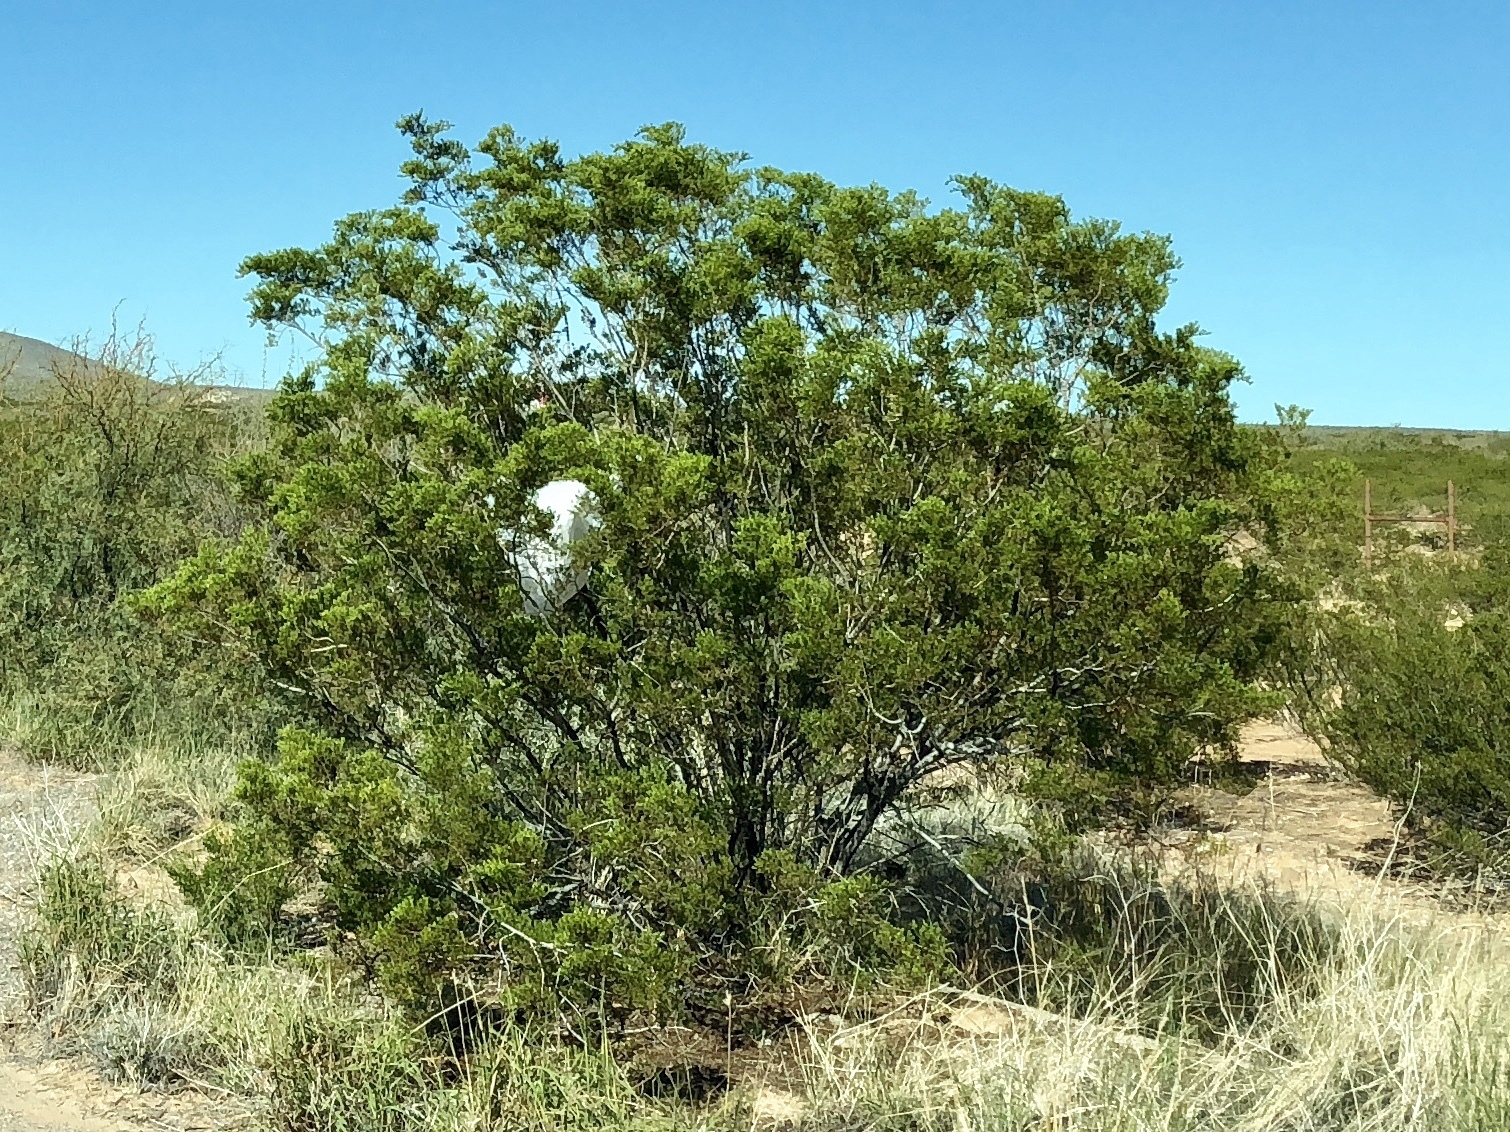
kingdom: Plantae
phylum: Tracheophyta
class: Magnoliopsida
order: Zygophyllales
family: Zygophyllaceae
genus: Larrea
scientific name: Larrea tridentata
